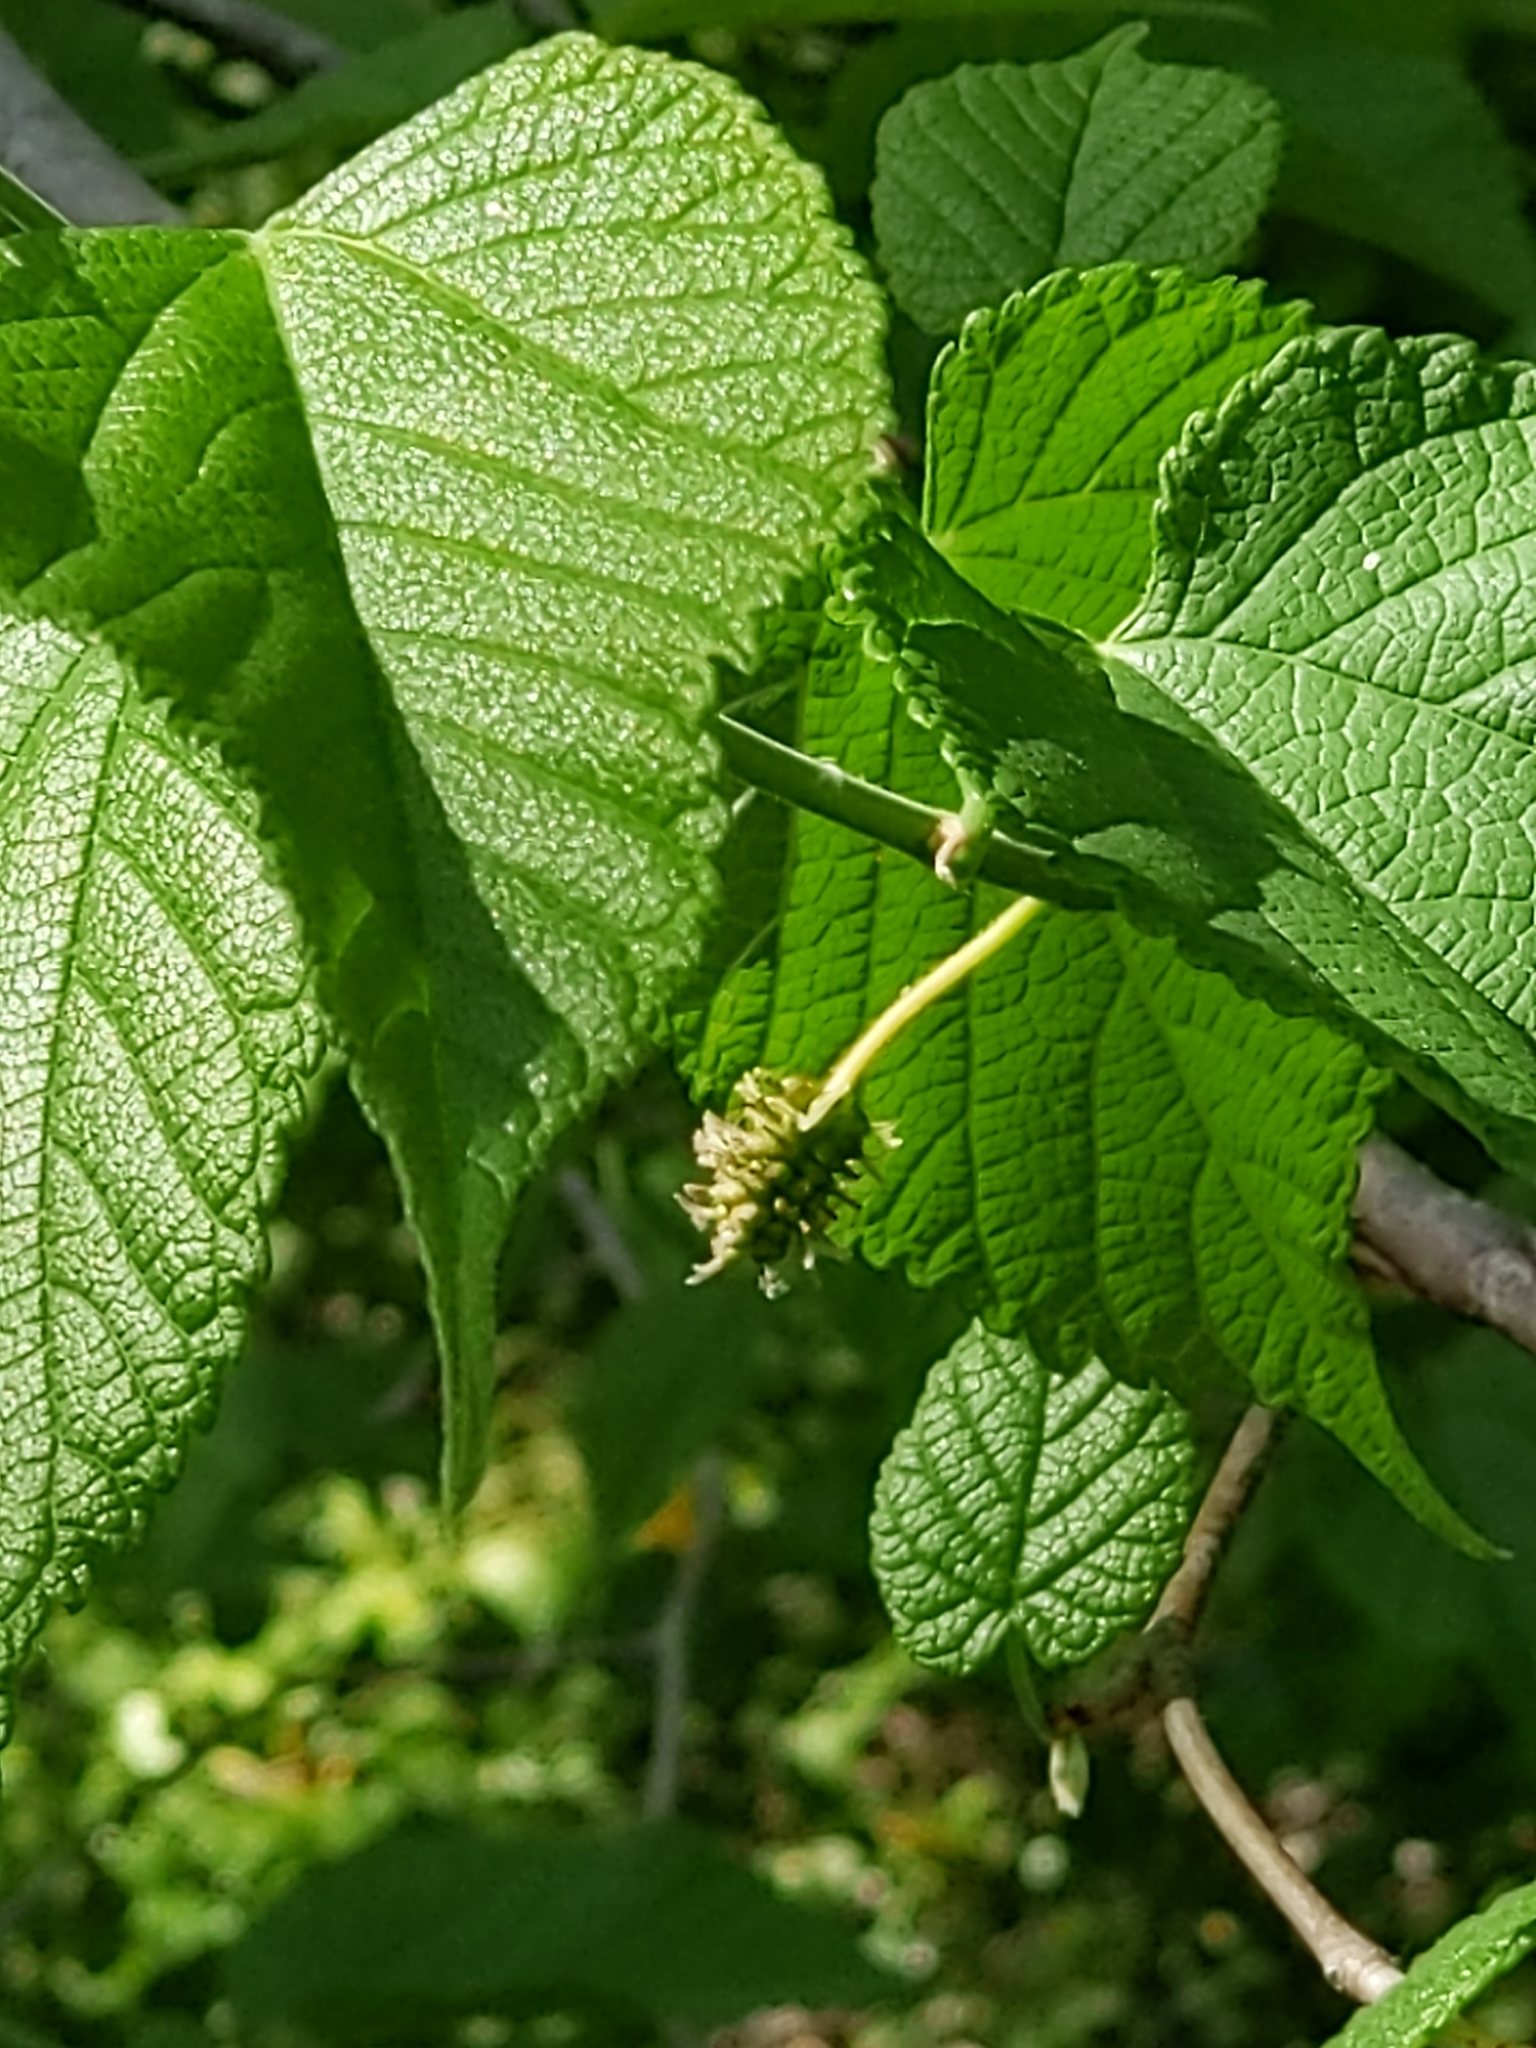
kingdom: Plantae
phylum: Tracheophyta
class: Magnoliopsida
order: Rosales
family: Moraceae
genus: Morus
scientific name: Morus rubra
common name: Red mulberry
